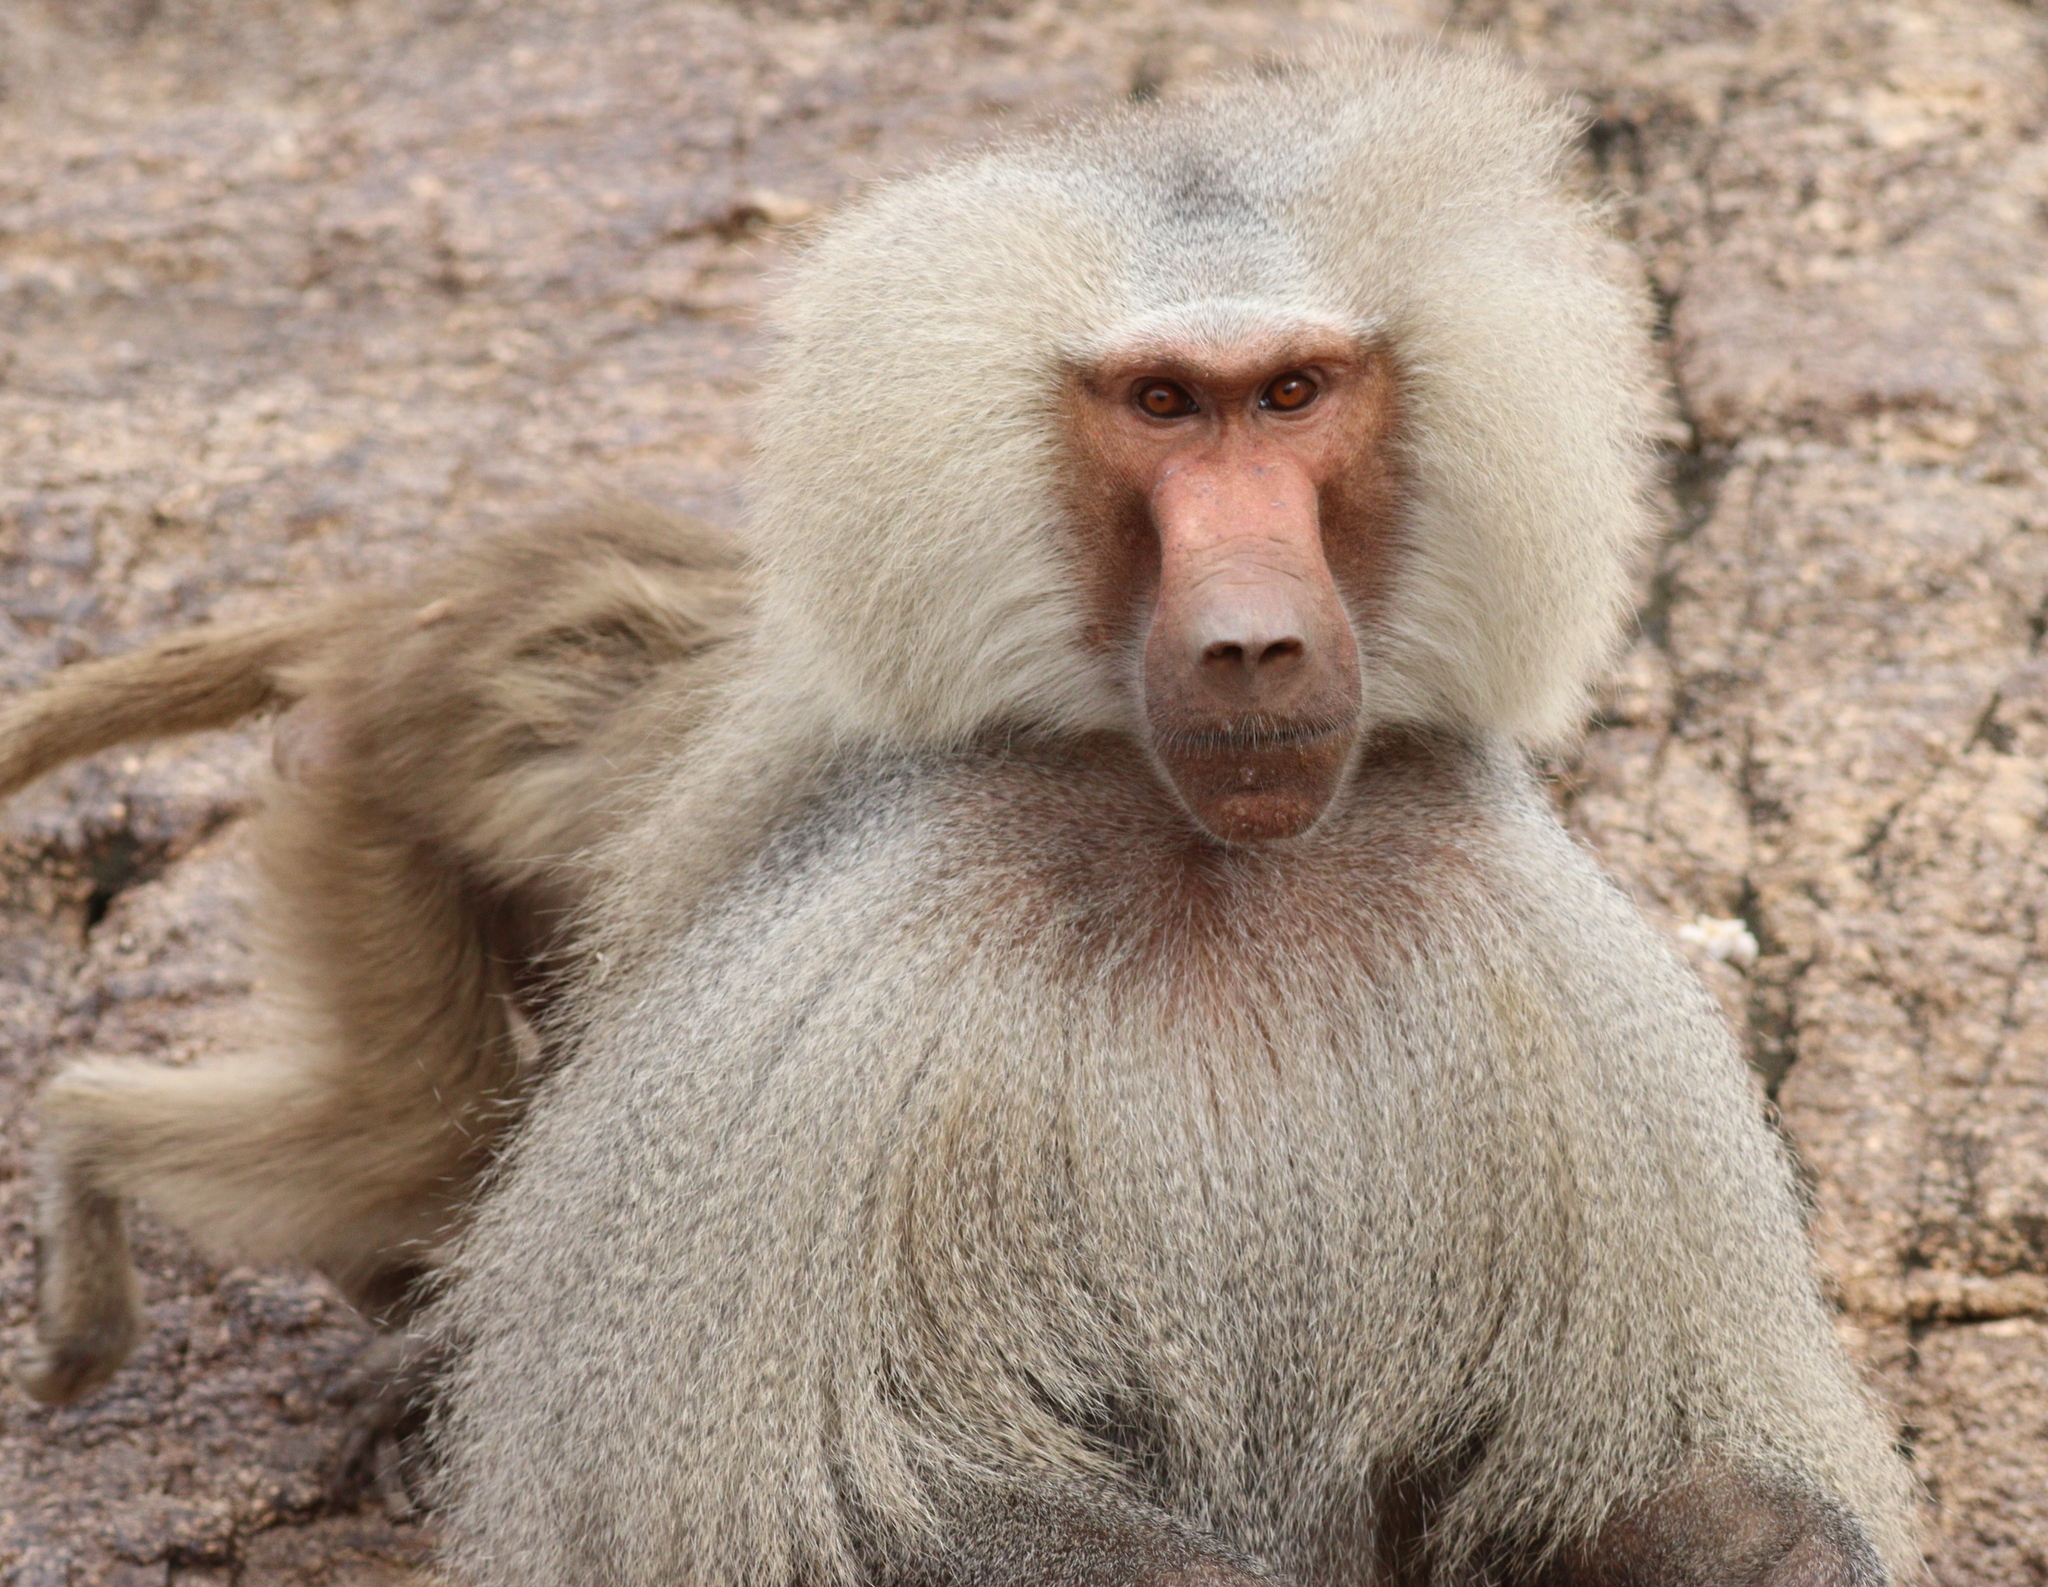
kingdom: Animalia
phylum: Chordata
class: Mammalia
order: Primates
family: Cercopithecidae
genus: Papio
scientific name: Papio hamadryas
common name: Hamadryas baboon
